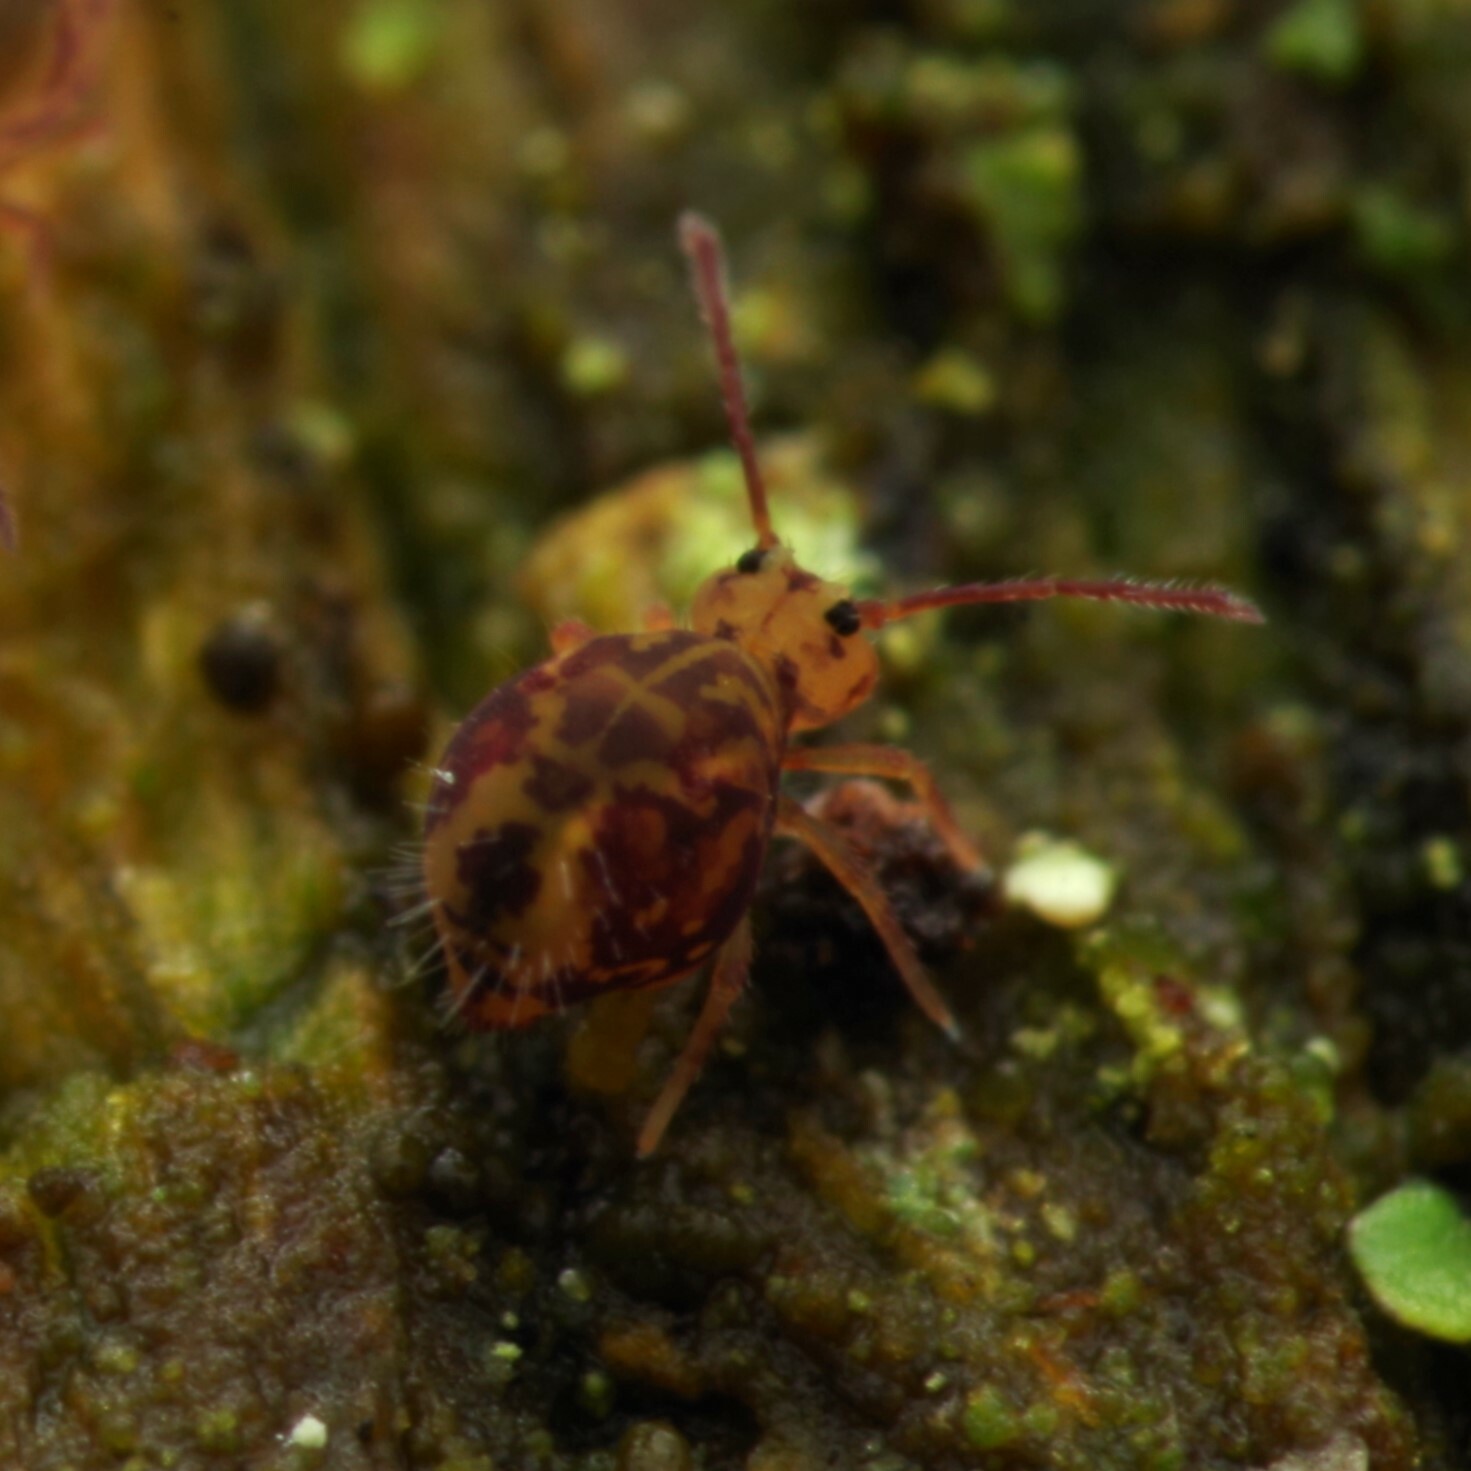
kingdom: Animalia
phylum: Arthropoda
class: Collembola
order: Symphypleona
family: Dicyrtomidae
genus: Dicyrtomina
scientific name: Dicyrtomina ornata
